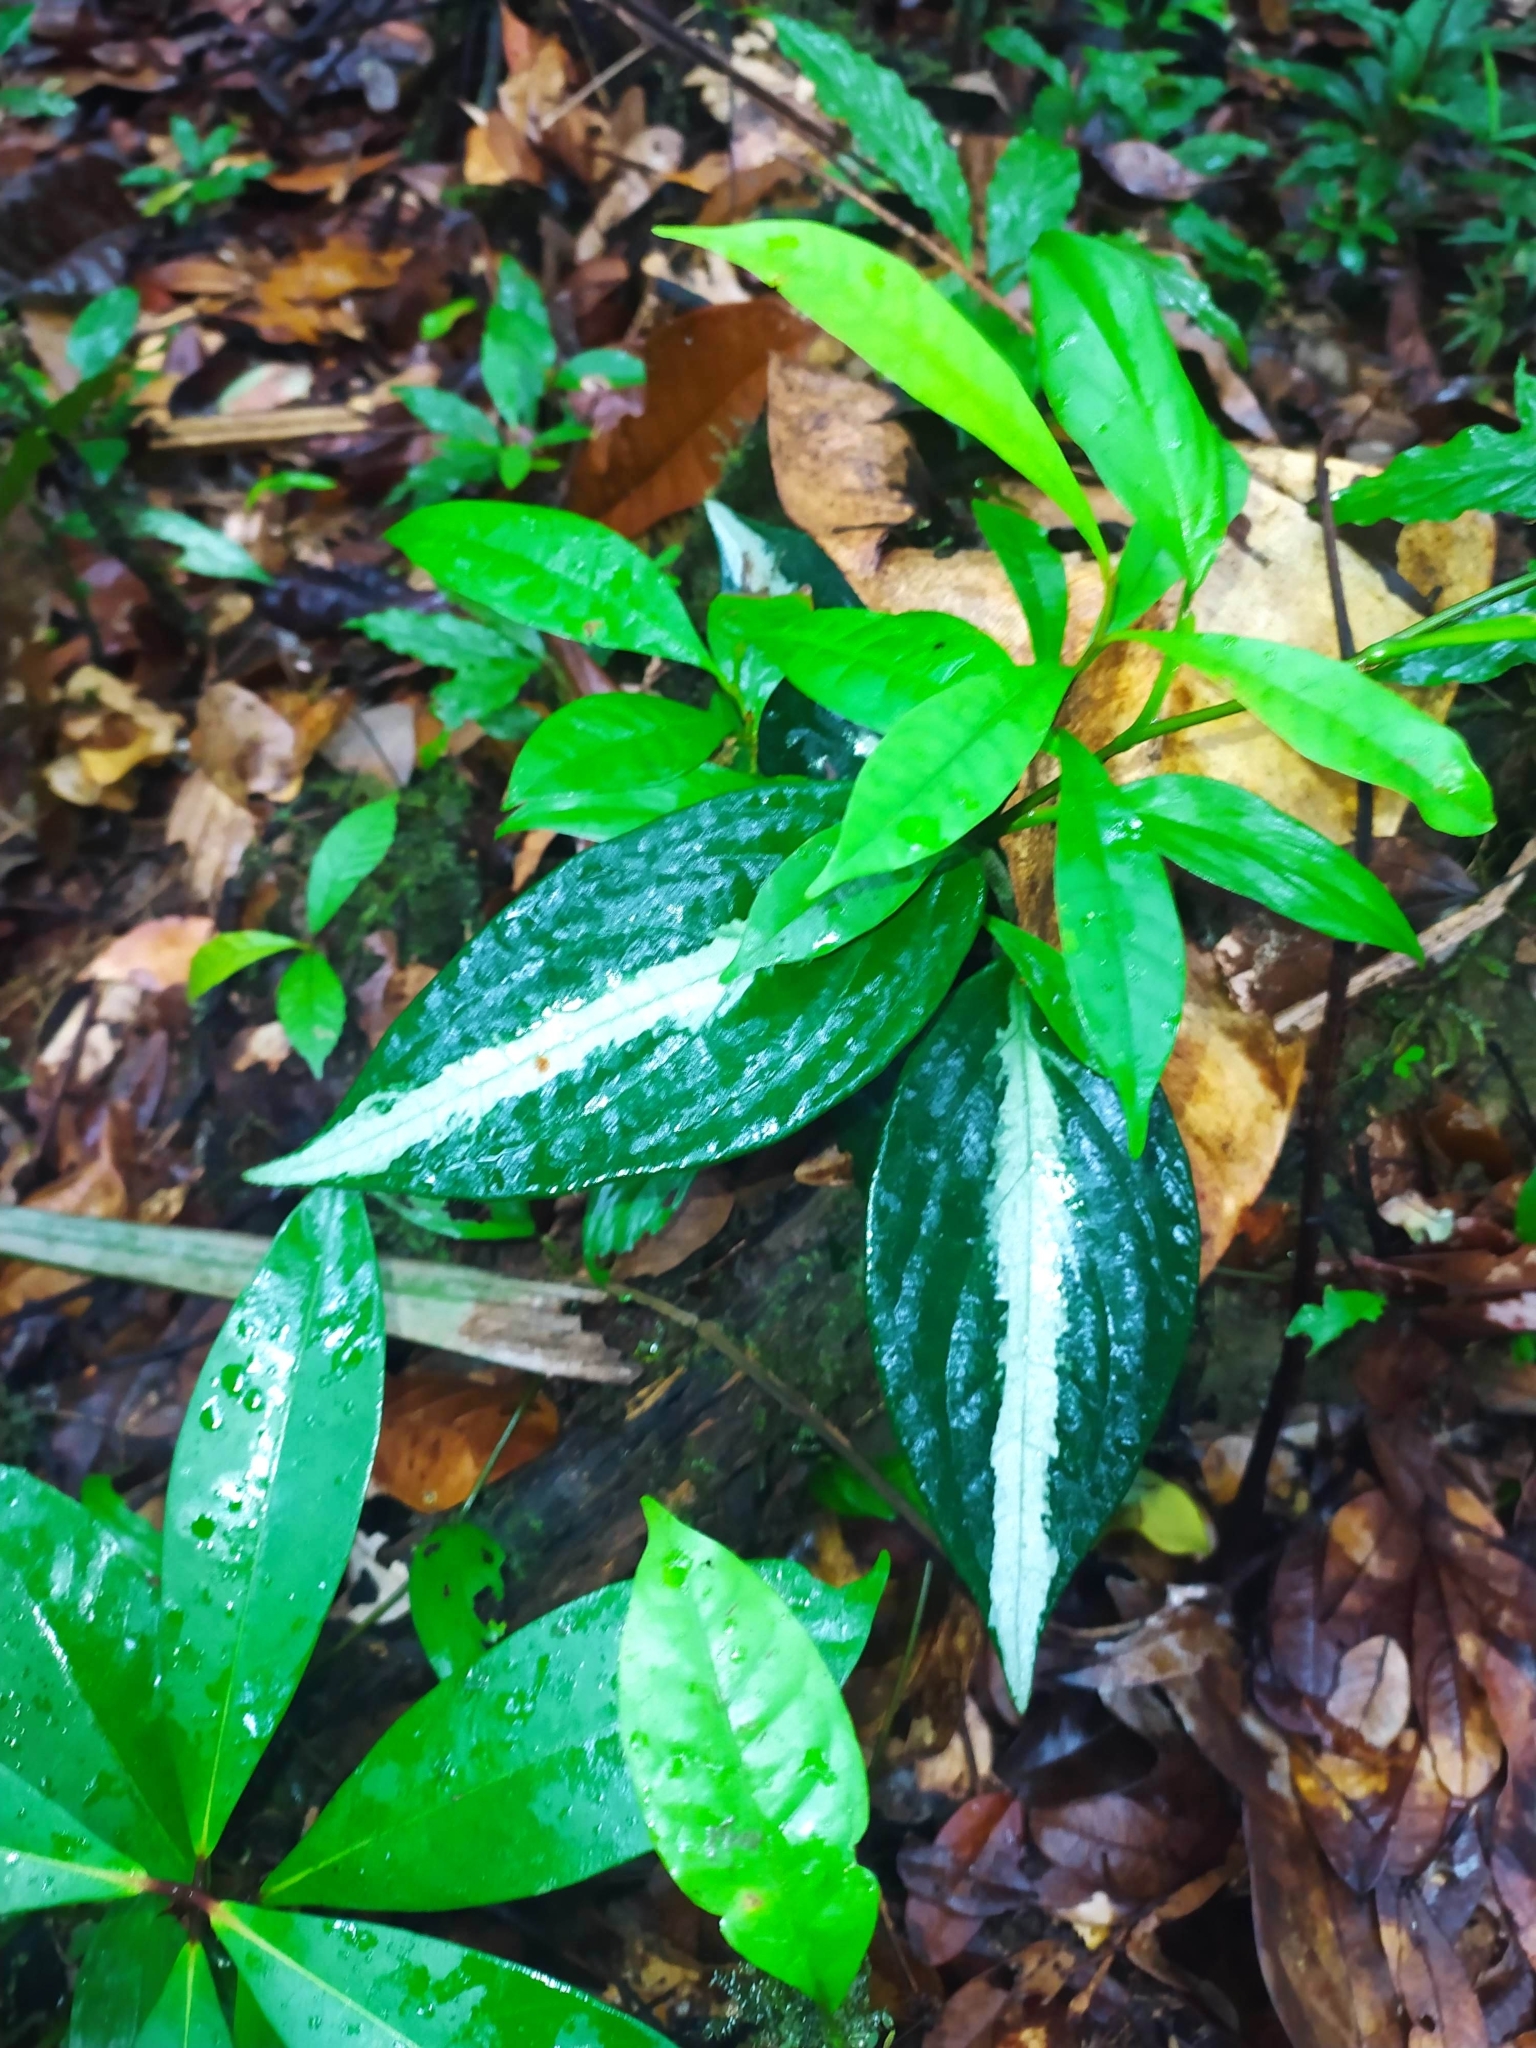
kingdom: Plantae
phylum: Tracheophyta
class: Magnoliopsida
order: Piperales
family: Piperaceae
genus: Piper
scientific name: Piper trichoneuron
